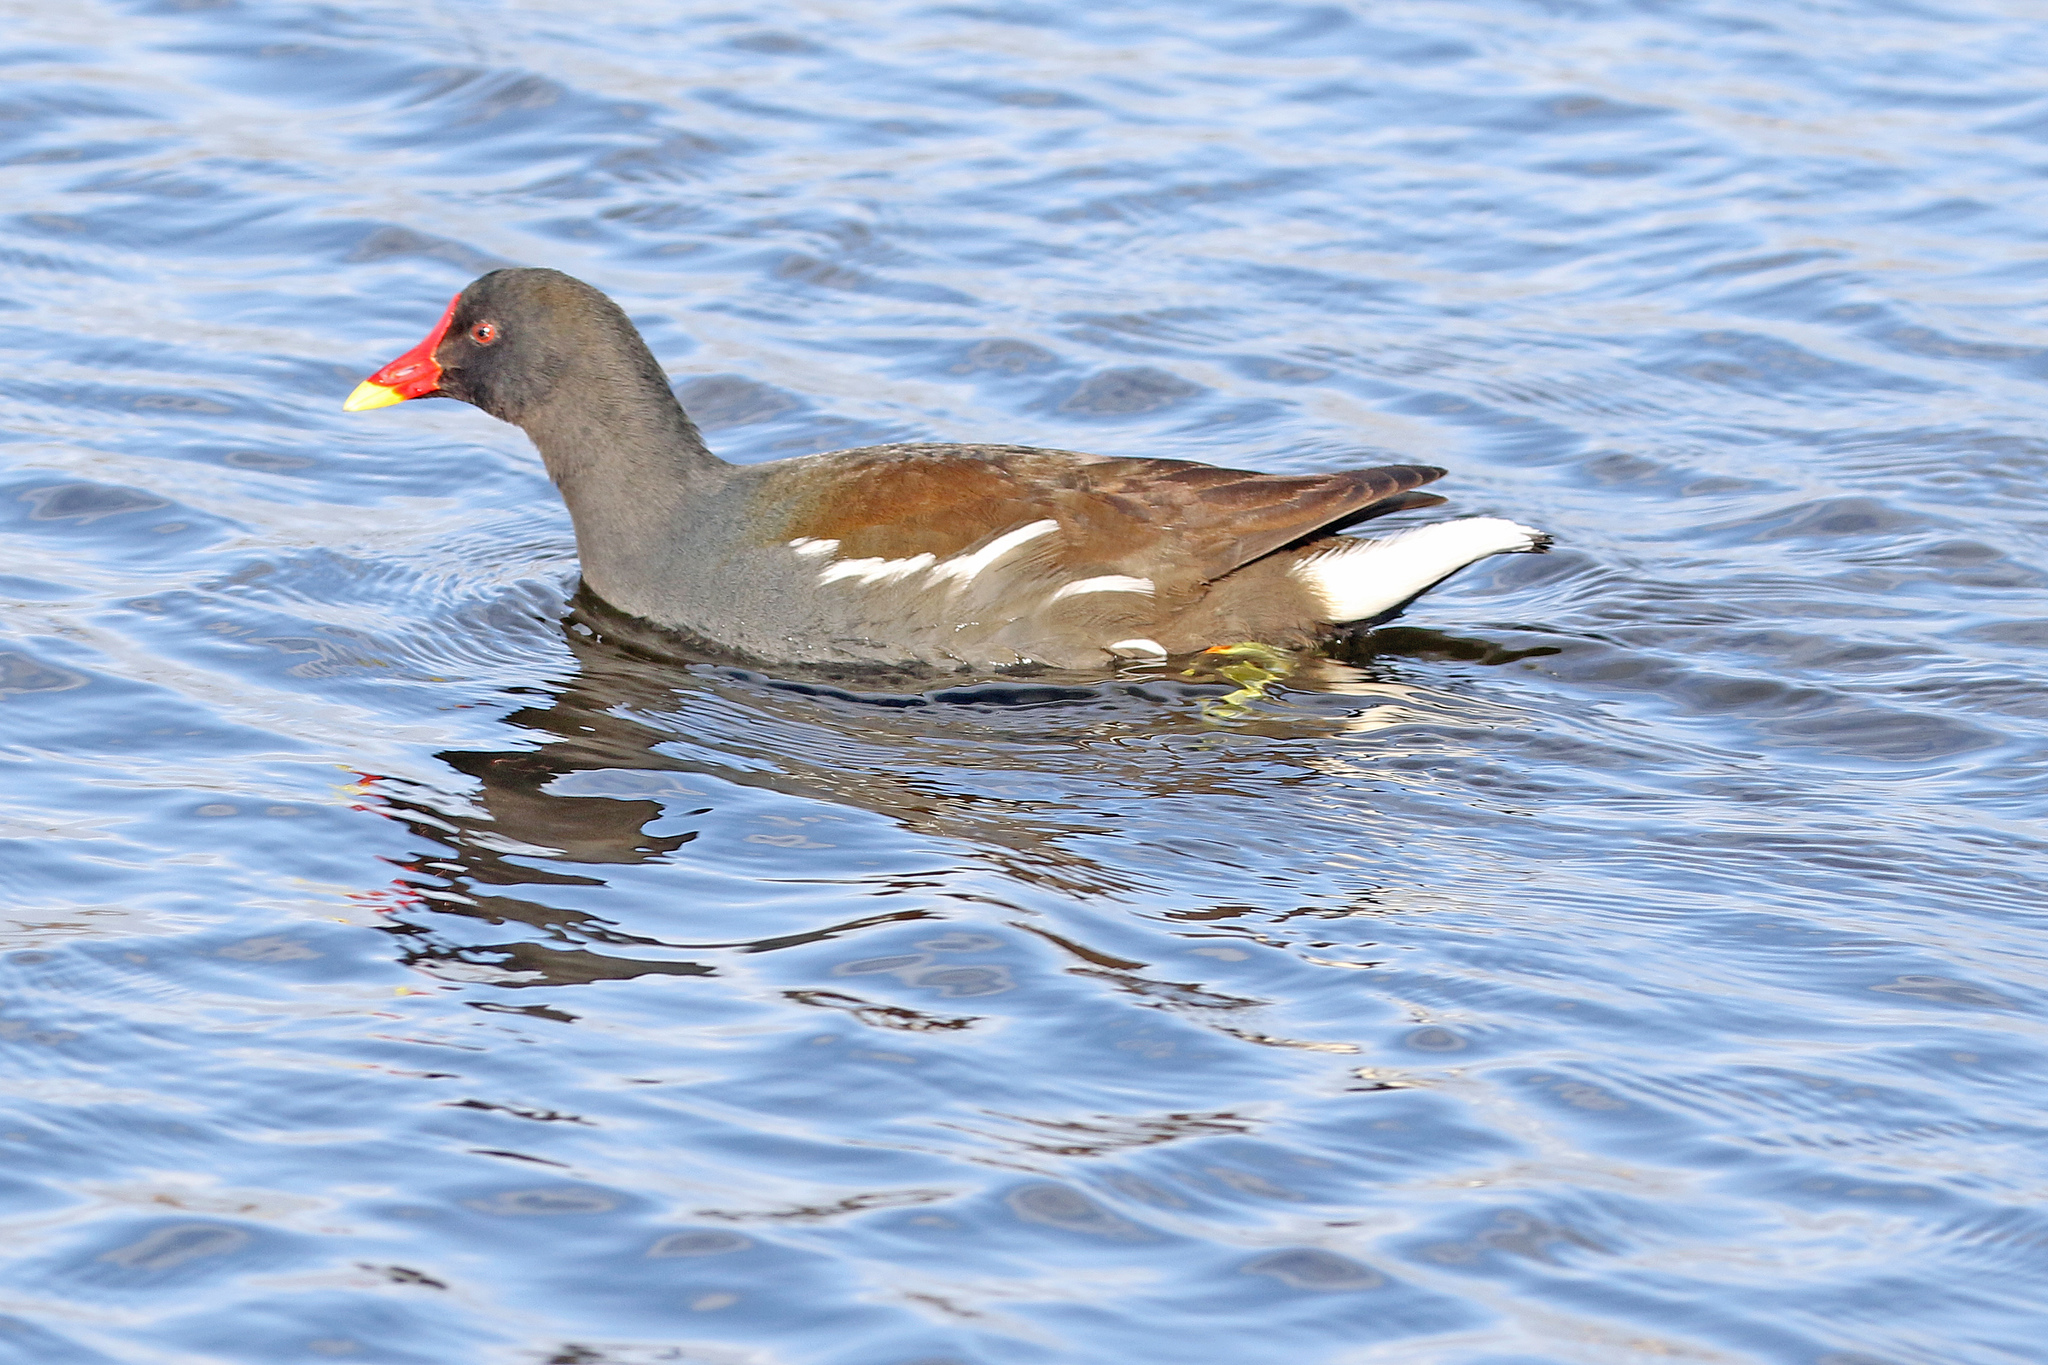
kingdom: Animalia
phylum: Chordata
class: Aves
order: Gruiformes
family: Rallidae
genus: Gallinula
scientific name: Gallinula chloropus
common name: Common moorhen
